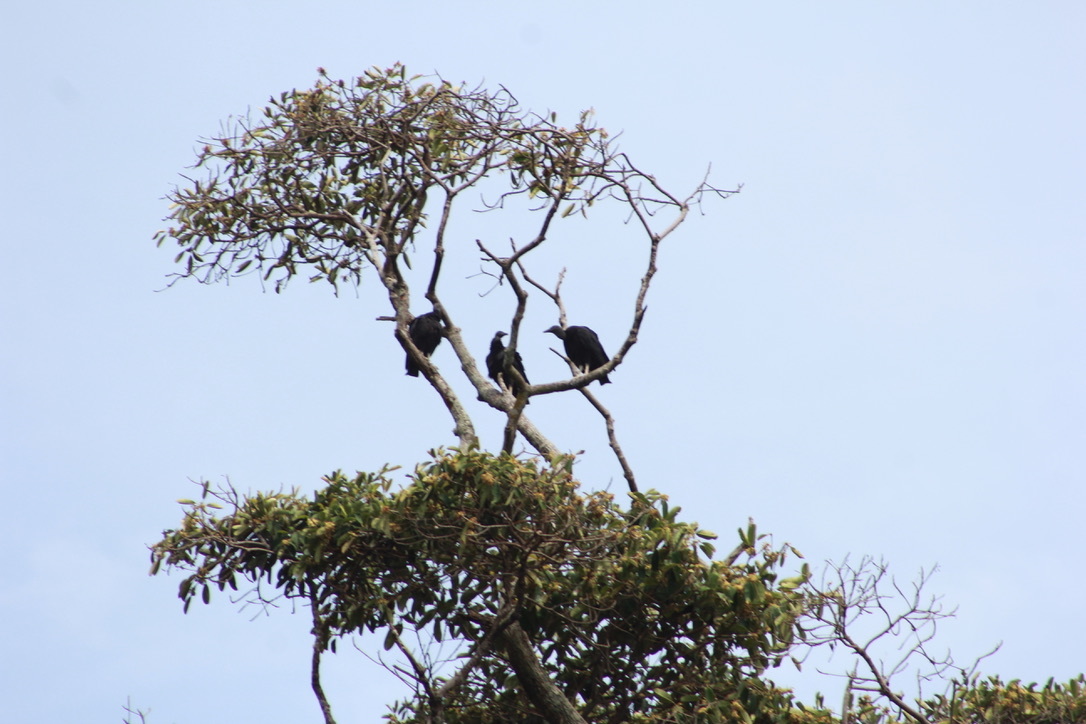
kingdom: Animalia
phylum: Chordata
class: Aves
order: Accipitriformes
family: Cathartidae
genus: Coragyps
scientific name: Coragyps atratus
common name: Black vulture
